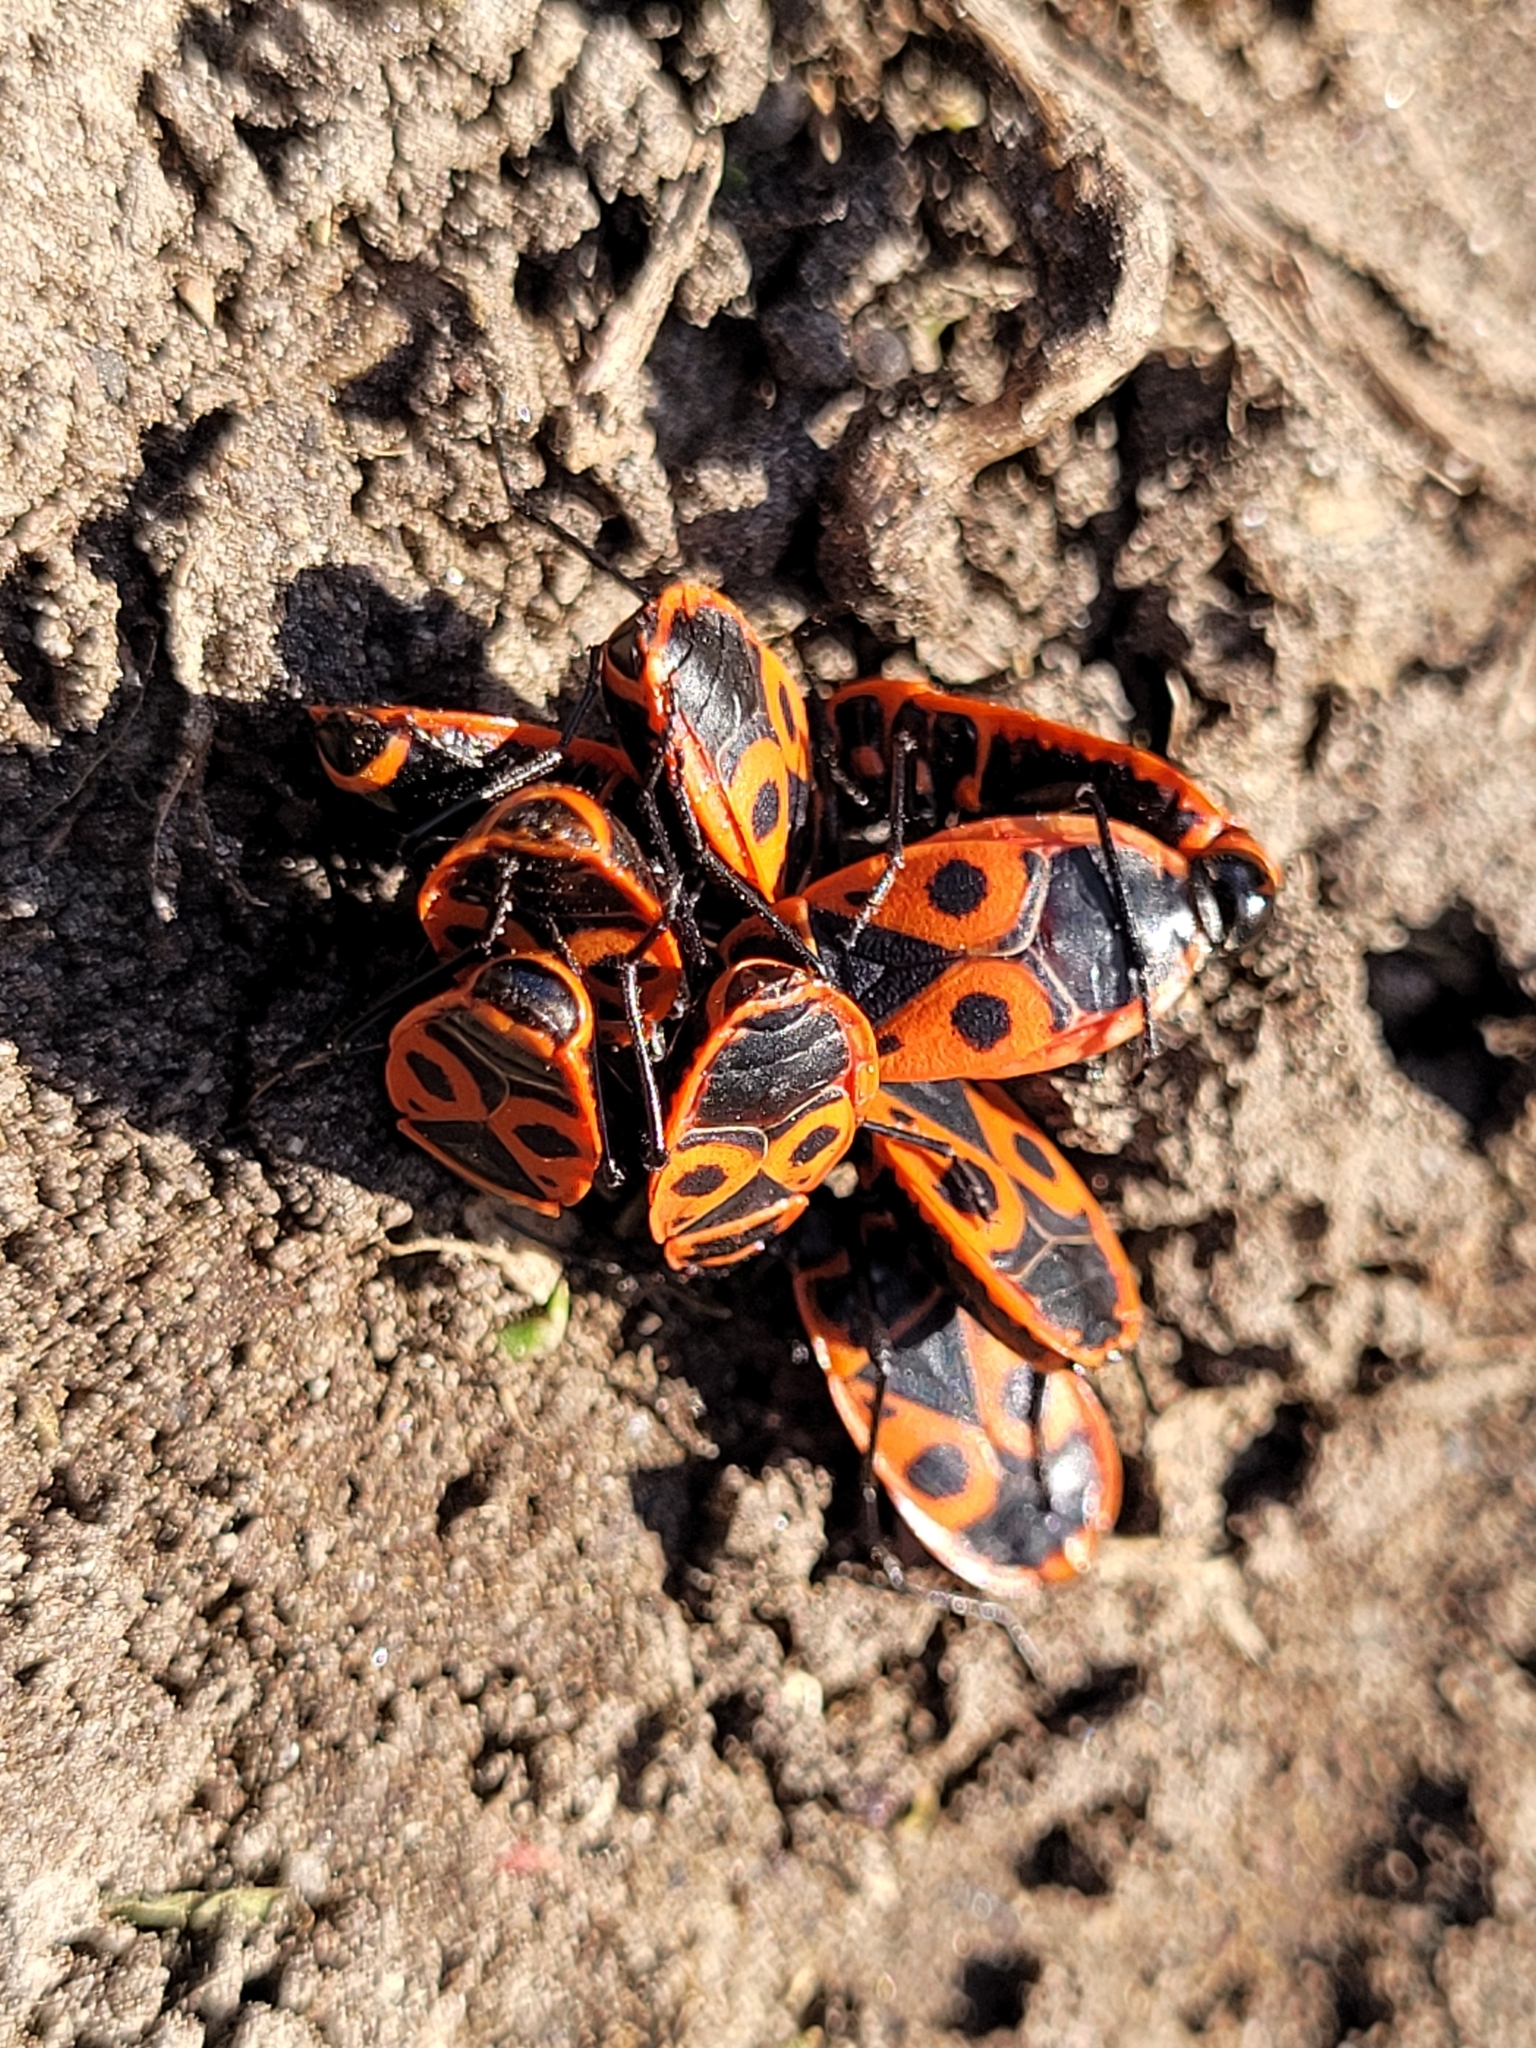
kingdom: Animalia
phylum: Arthropoda
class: Insecta
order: Hemiptera
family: Pyrrhocoridae
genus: Pyrrhocoris
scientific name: Pyrrhocoris apterus
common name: Firebug
